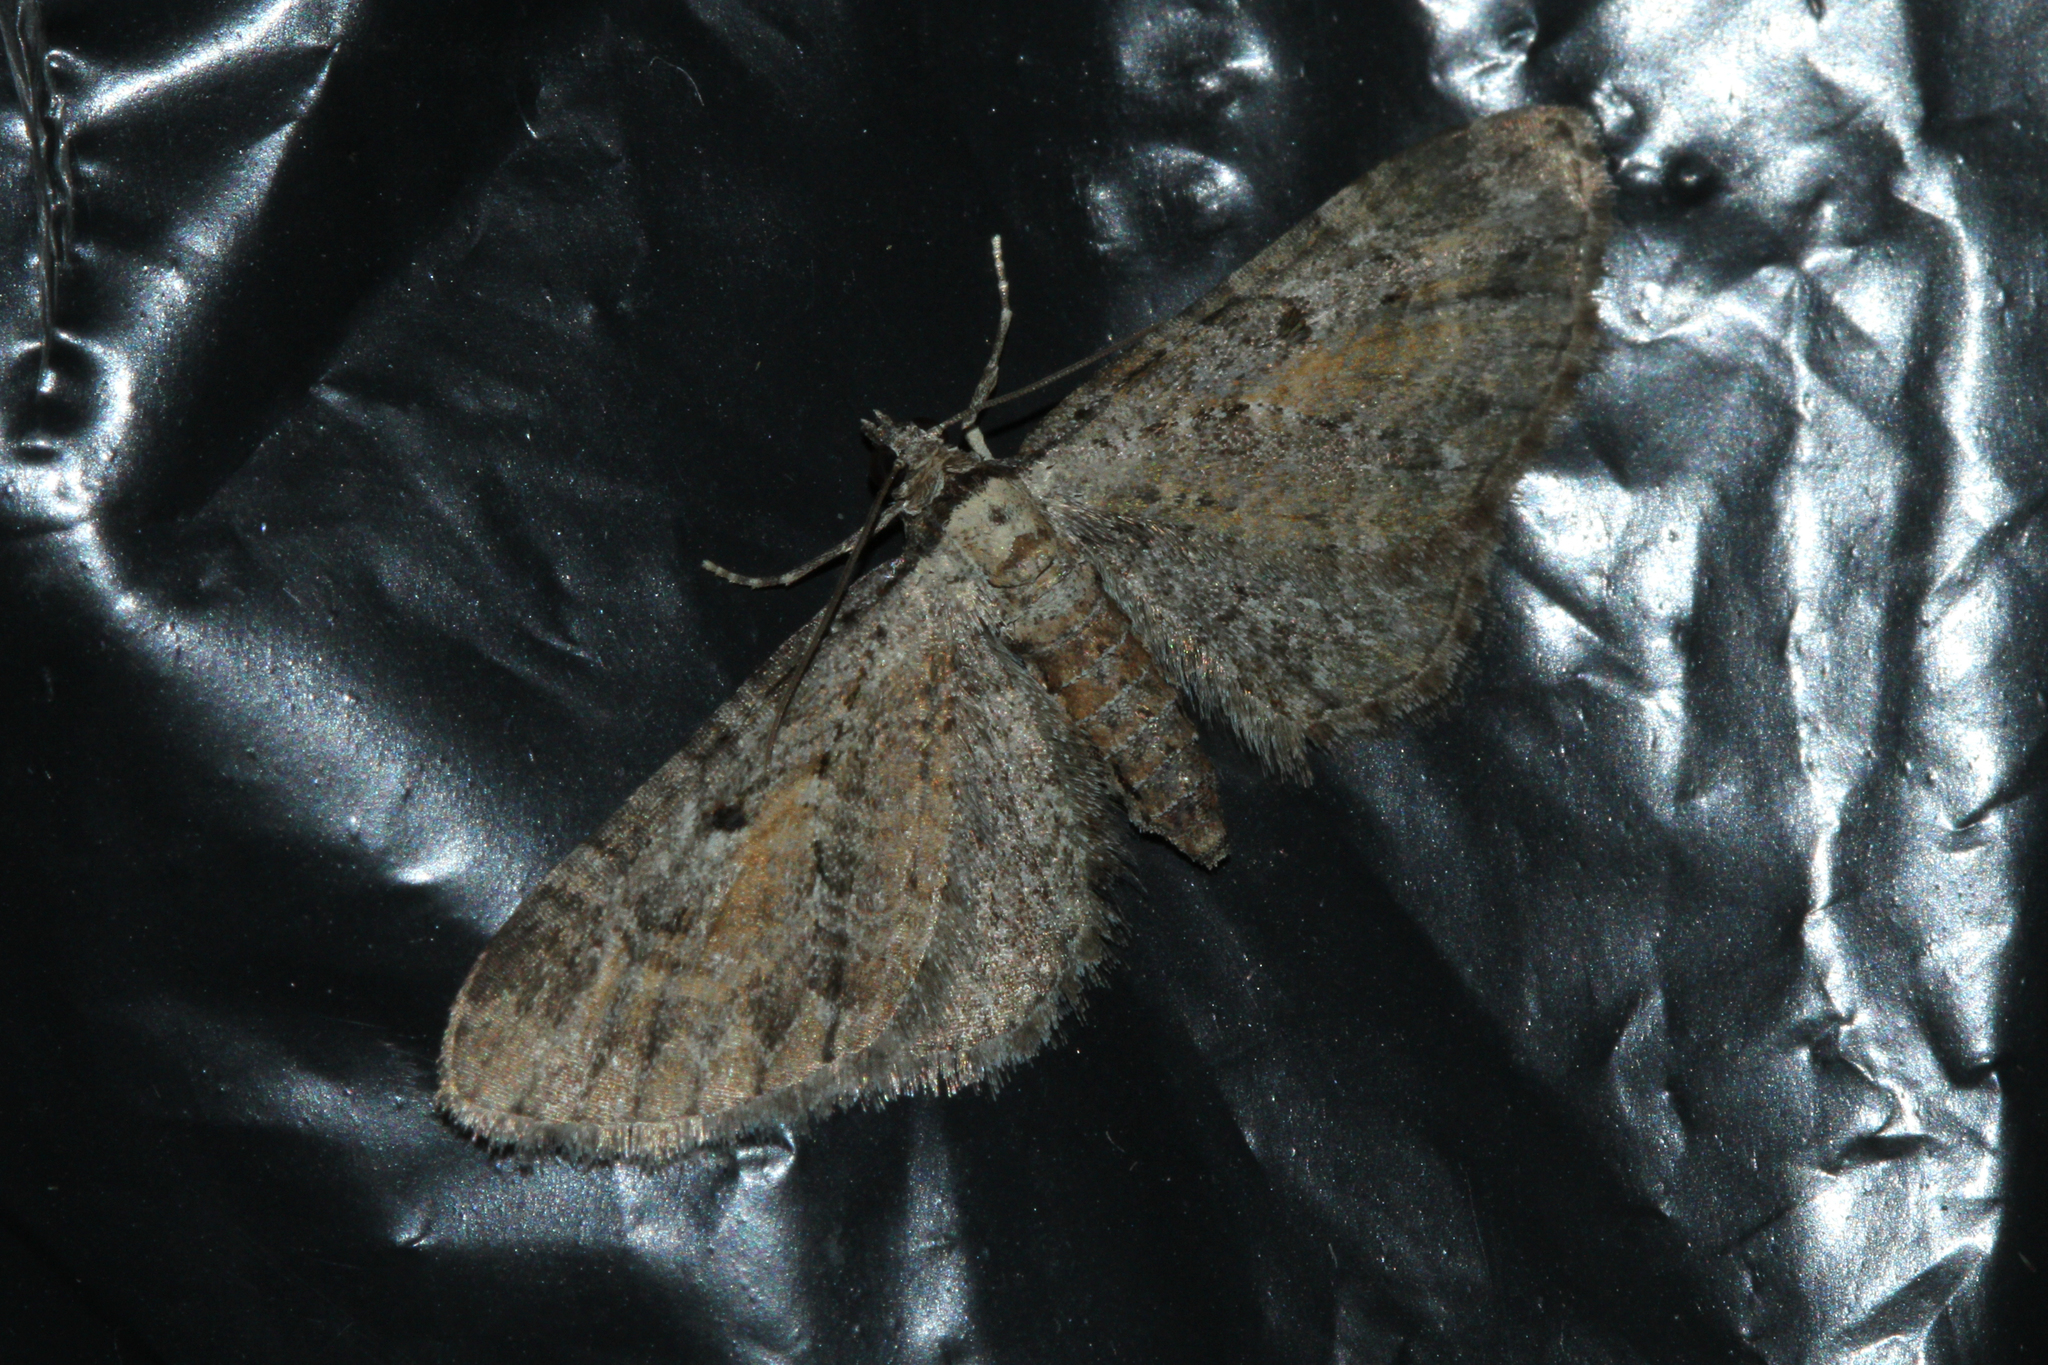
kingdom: Animalia
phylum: Arthropoda
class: Insecta
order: Lepidoptera
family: Geometridae
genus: Eupithecia
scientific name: Eupithecia icterata
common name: Tawny speckled pug
